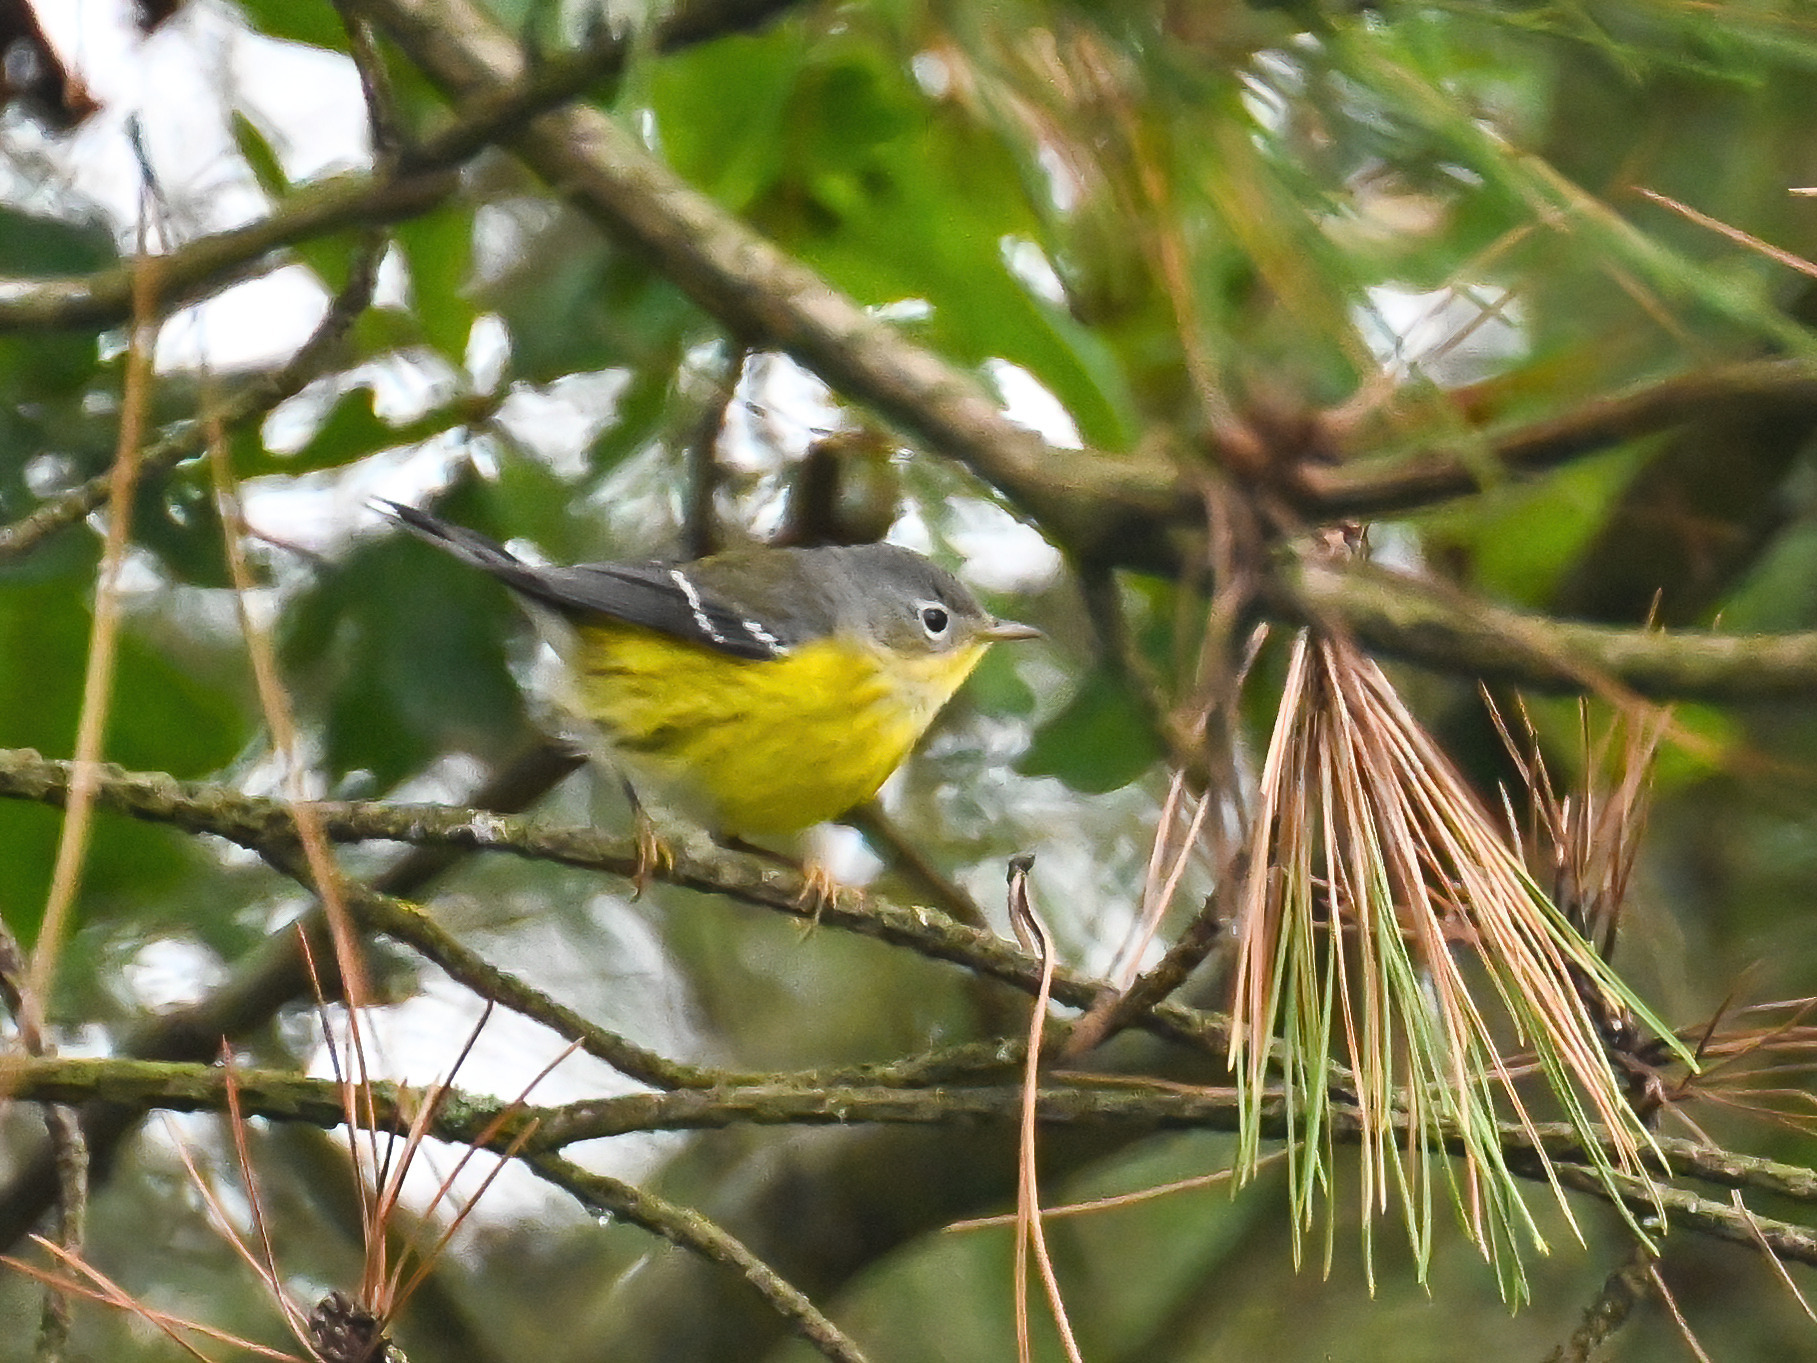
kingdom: Animalia
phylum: Chordata
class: Aves
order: Passeriformes
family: Parulidae
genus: Setophaga
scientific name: Setophaga magnolia
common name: Magnolia warbler
